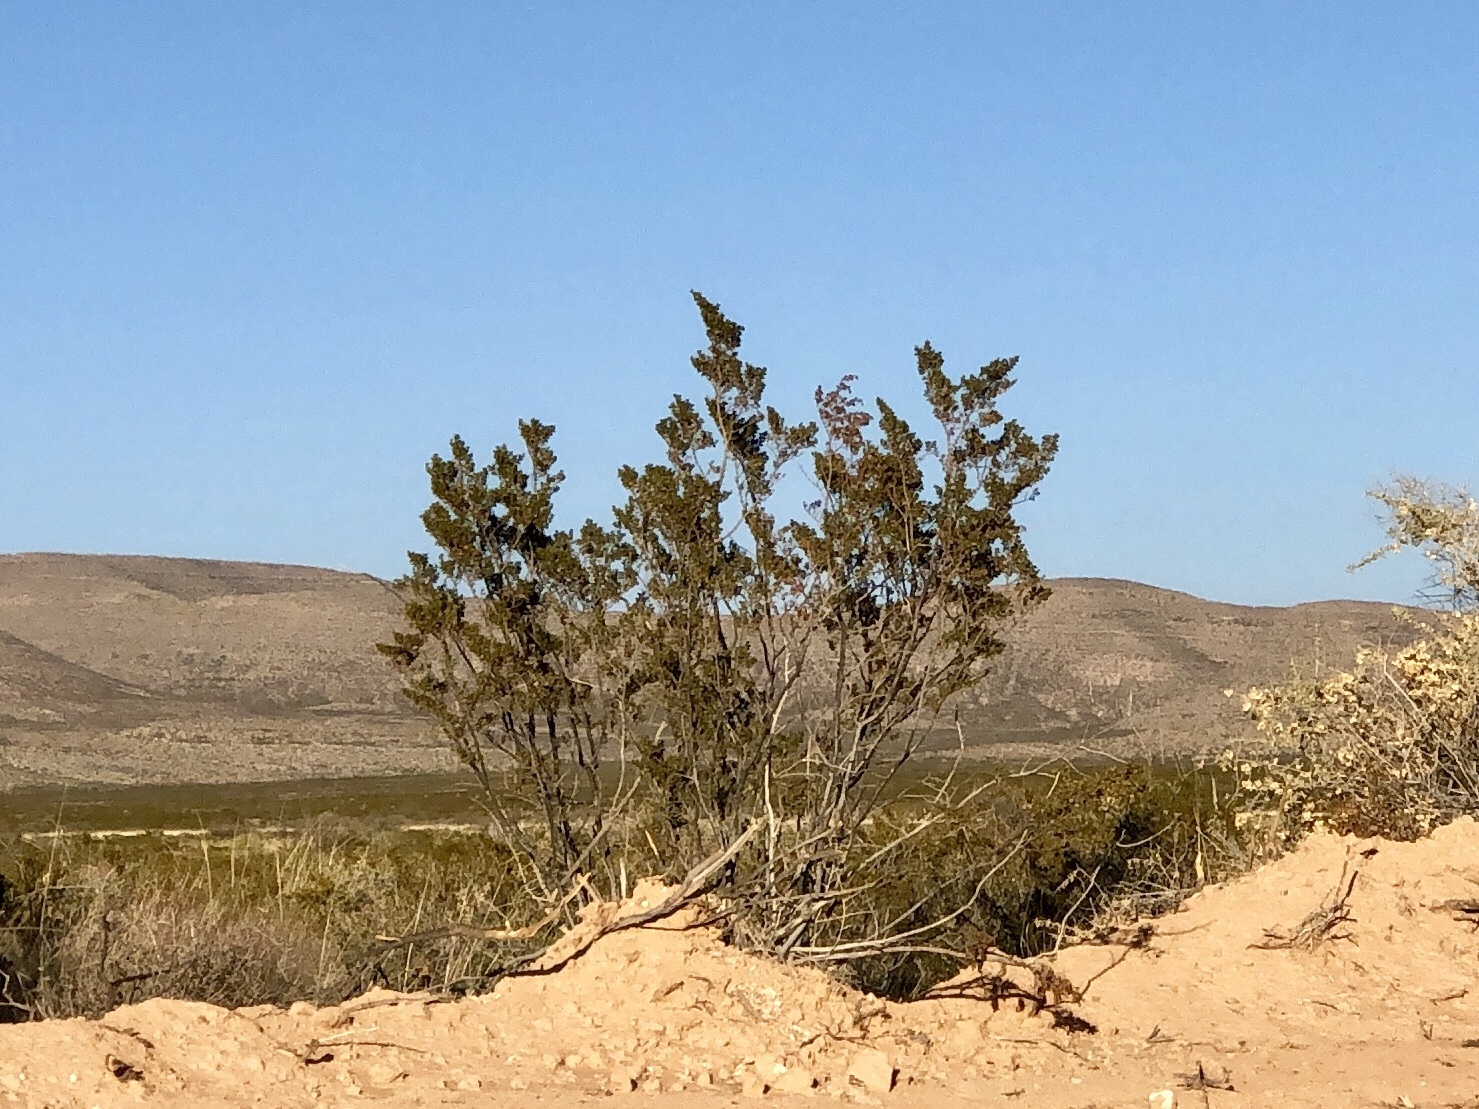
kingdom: Plantae
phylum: Tracheophyta
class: Magnoliopsida
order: Zygophyllales
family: Zygophyllaceae
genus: Larrea
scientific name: Larrea tridentata
